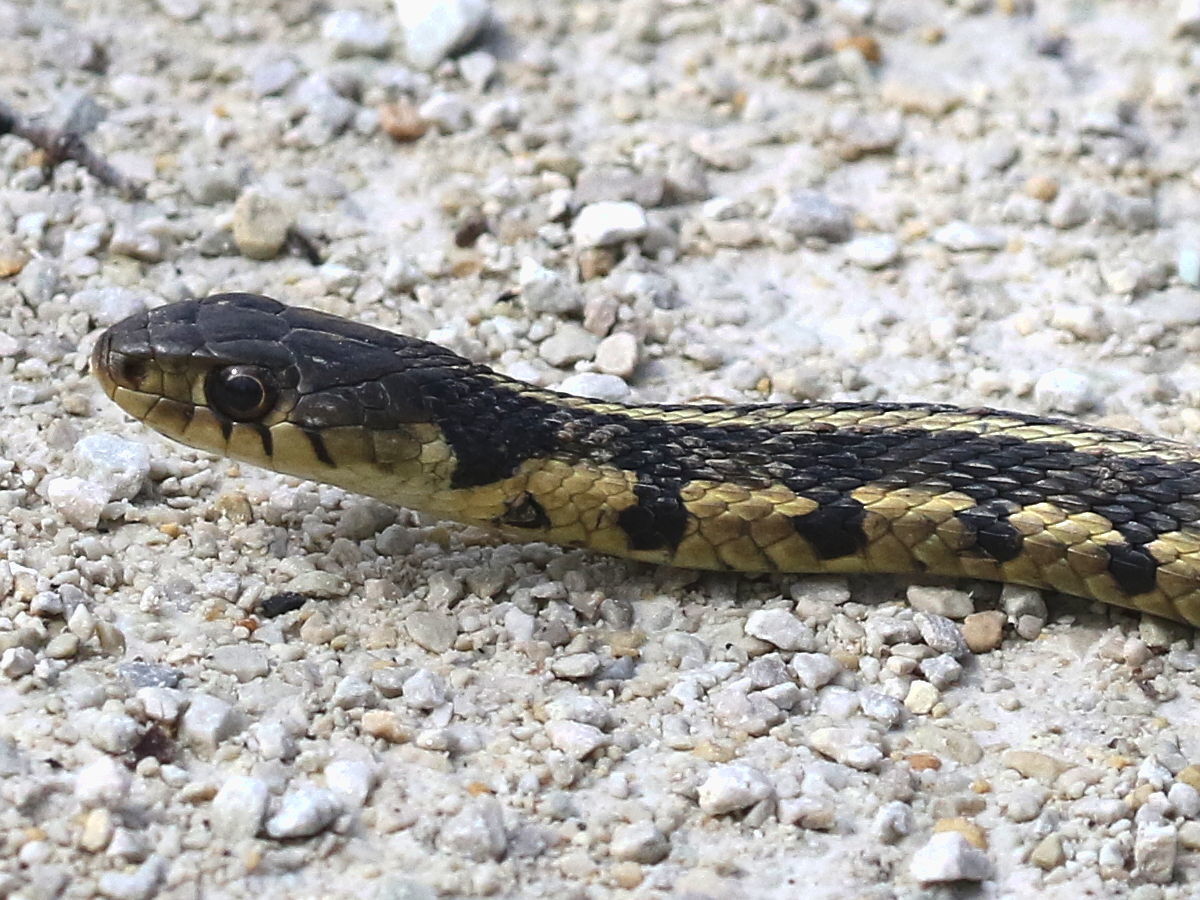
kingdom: Animalia
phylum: Chordata
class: Squamata
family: Colubridae
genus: Thamnophis
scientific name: Thamnophis sirtalis
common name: Common garter snake
